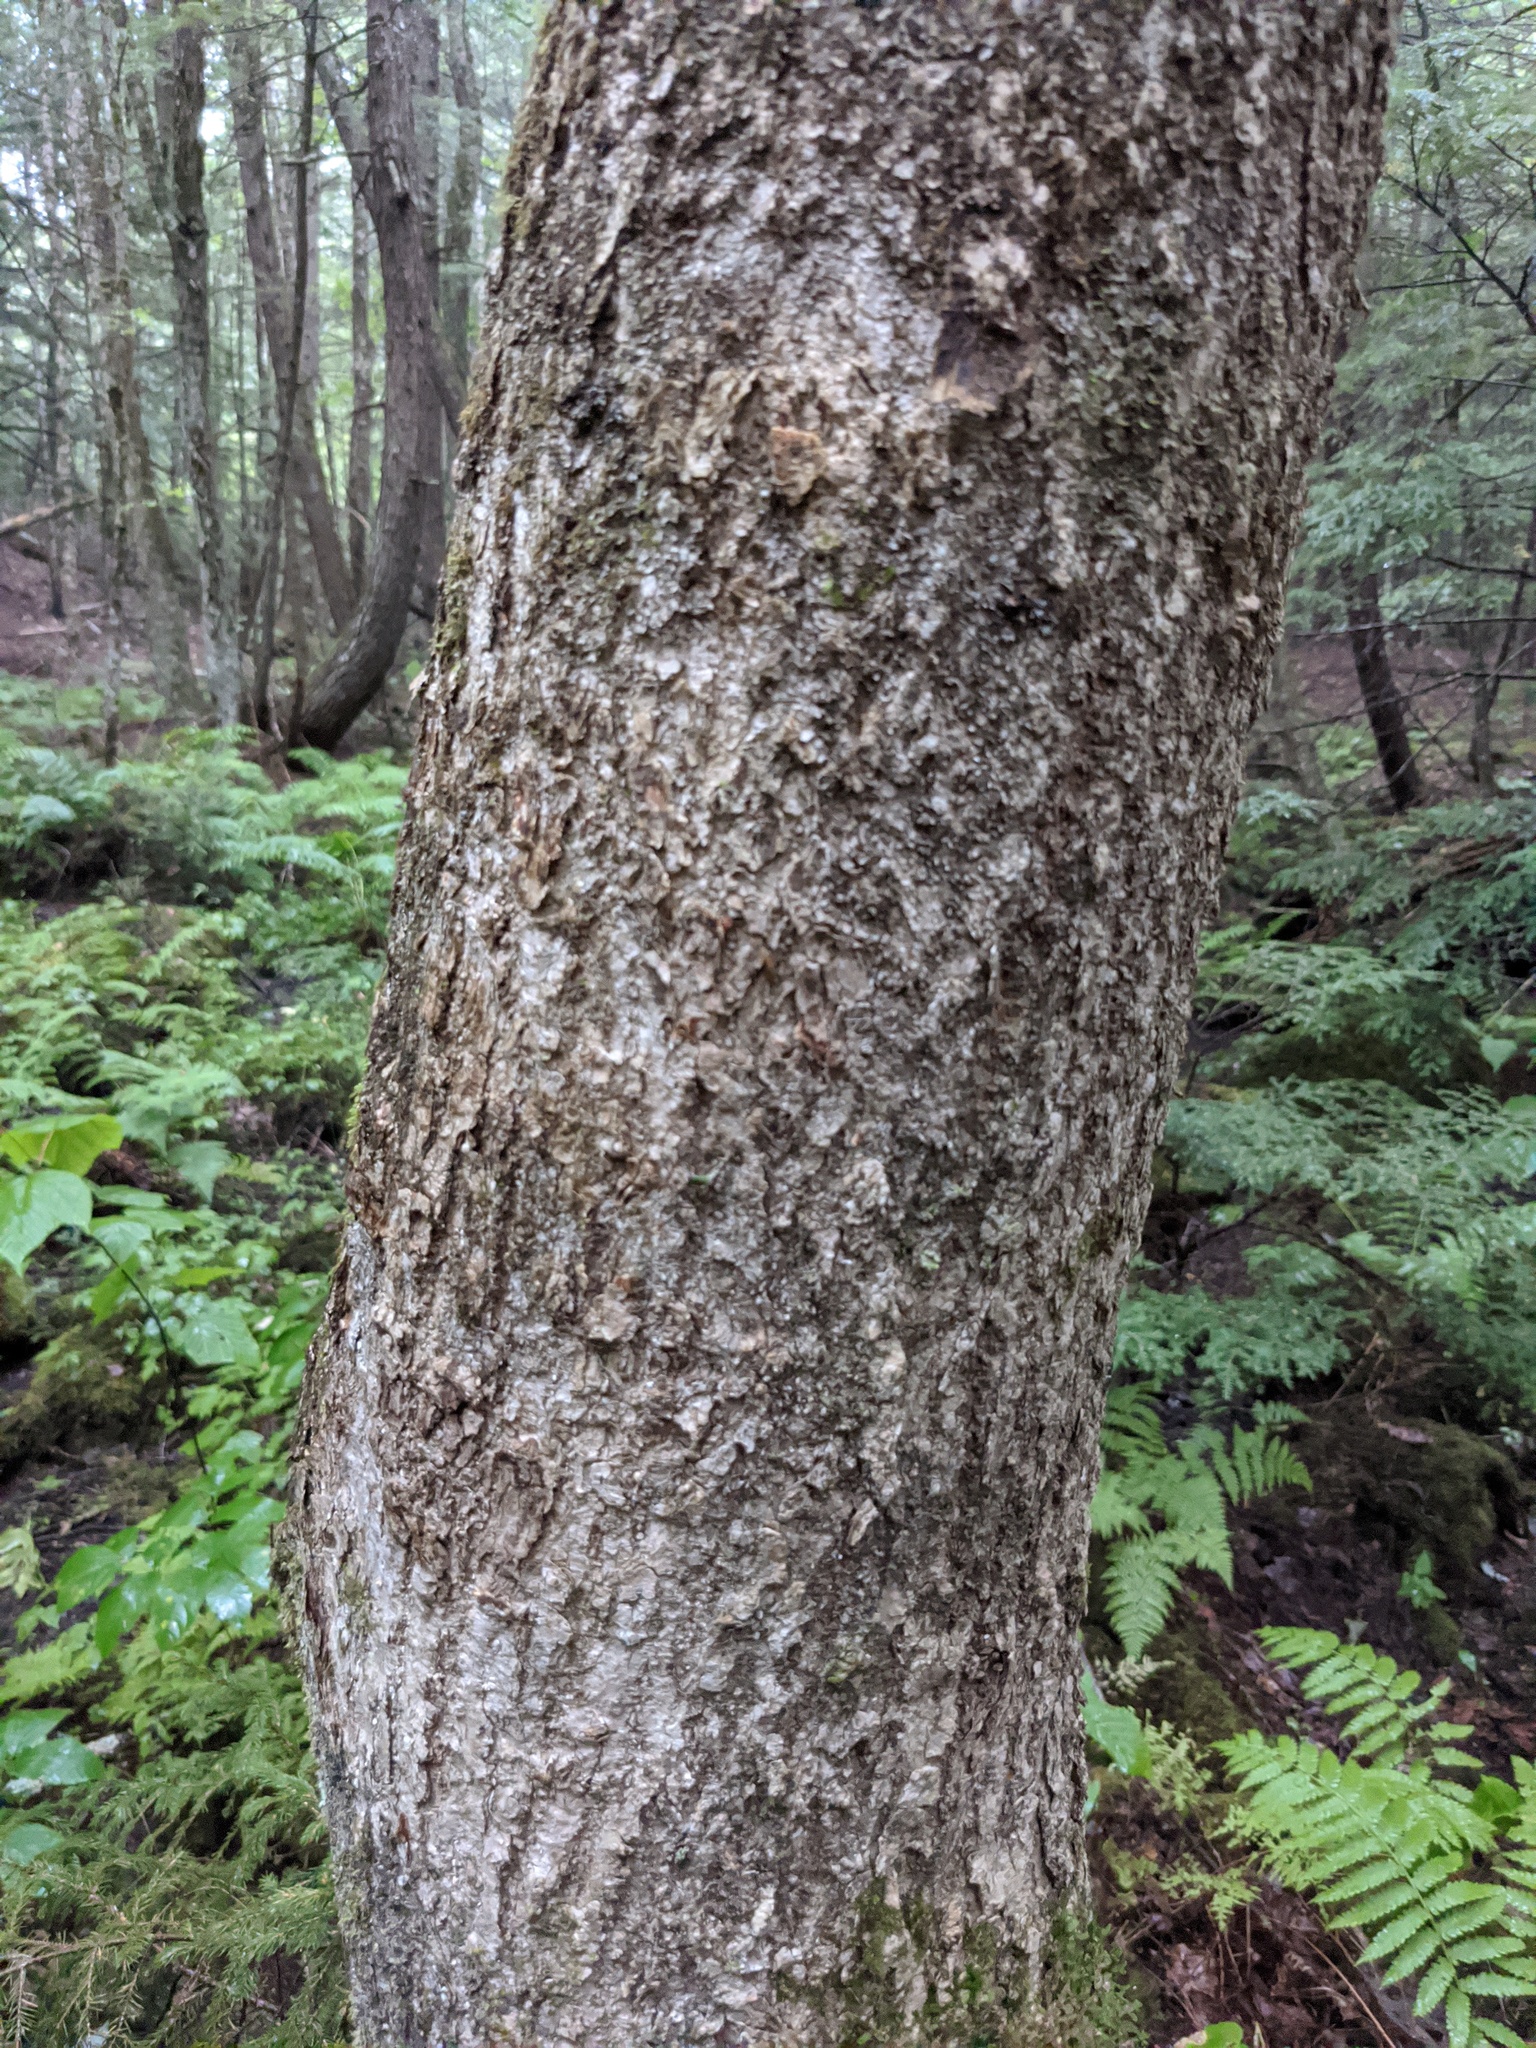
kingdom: Plantae
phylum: Marchantiophyta
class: Jungermanniopsida
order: Porellales
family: Porellaceae
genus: Porella
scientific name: Porella platyphylla
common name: Wall scalewort
